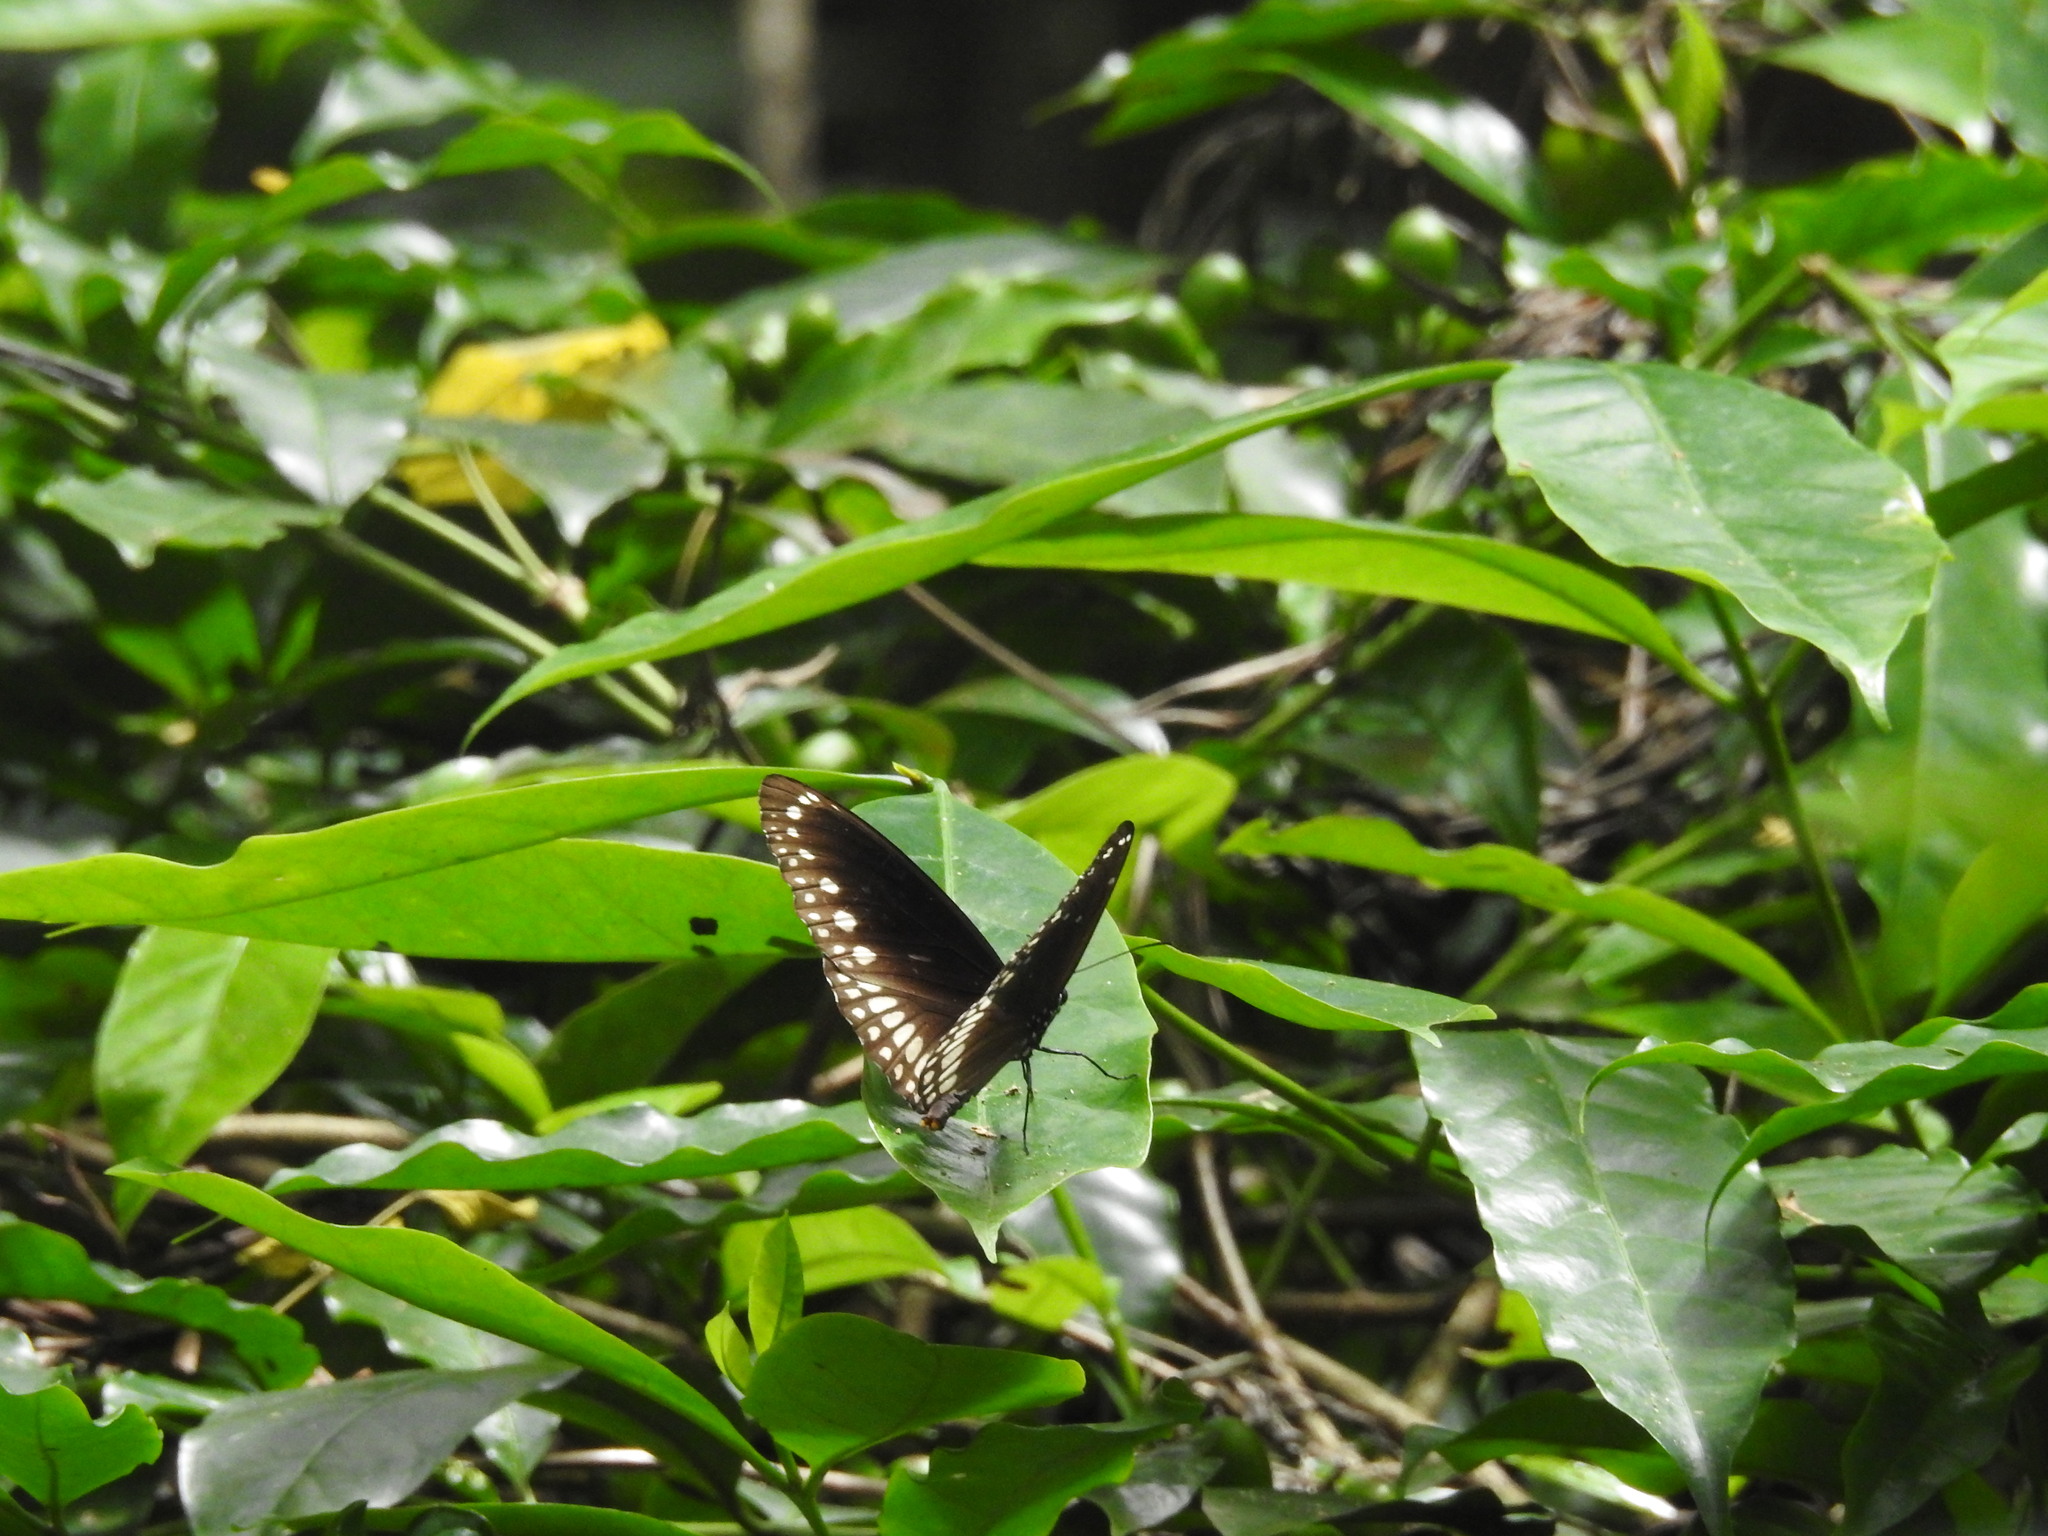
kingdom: Animalia
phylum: Arthropoda
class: Insecta
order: Lepidoptera
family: Nymphalidae
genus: Euploea
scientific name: Euploea core
